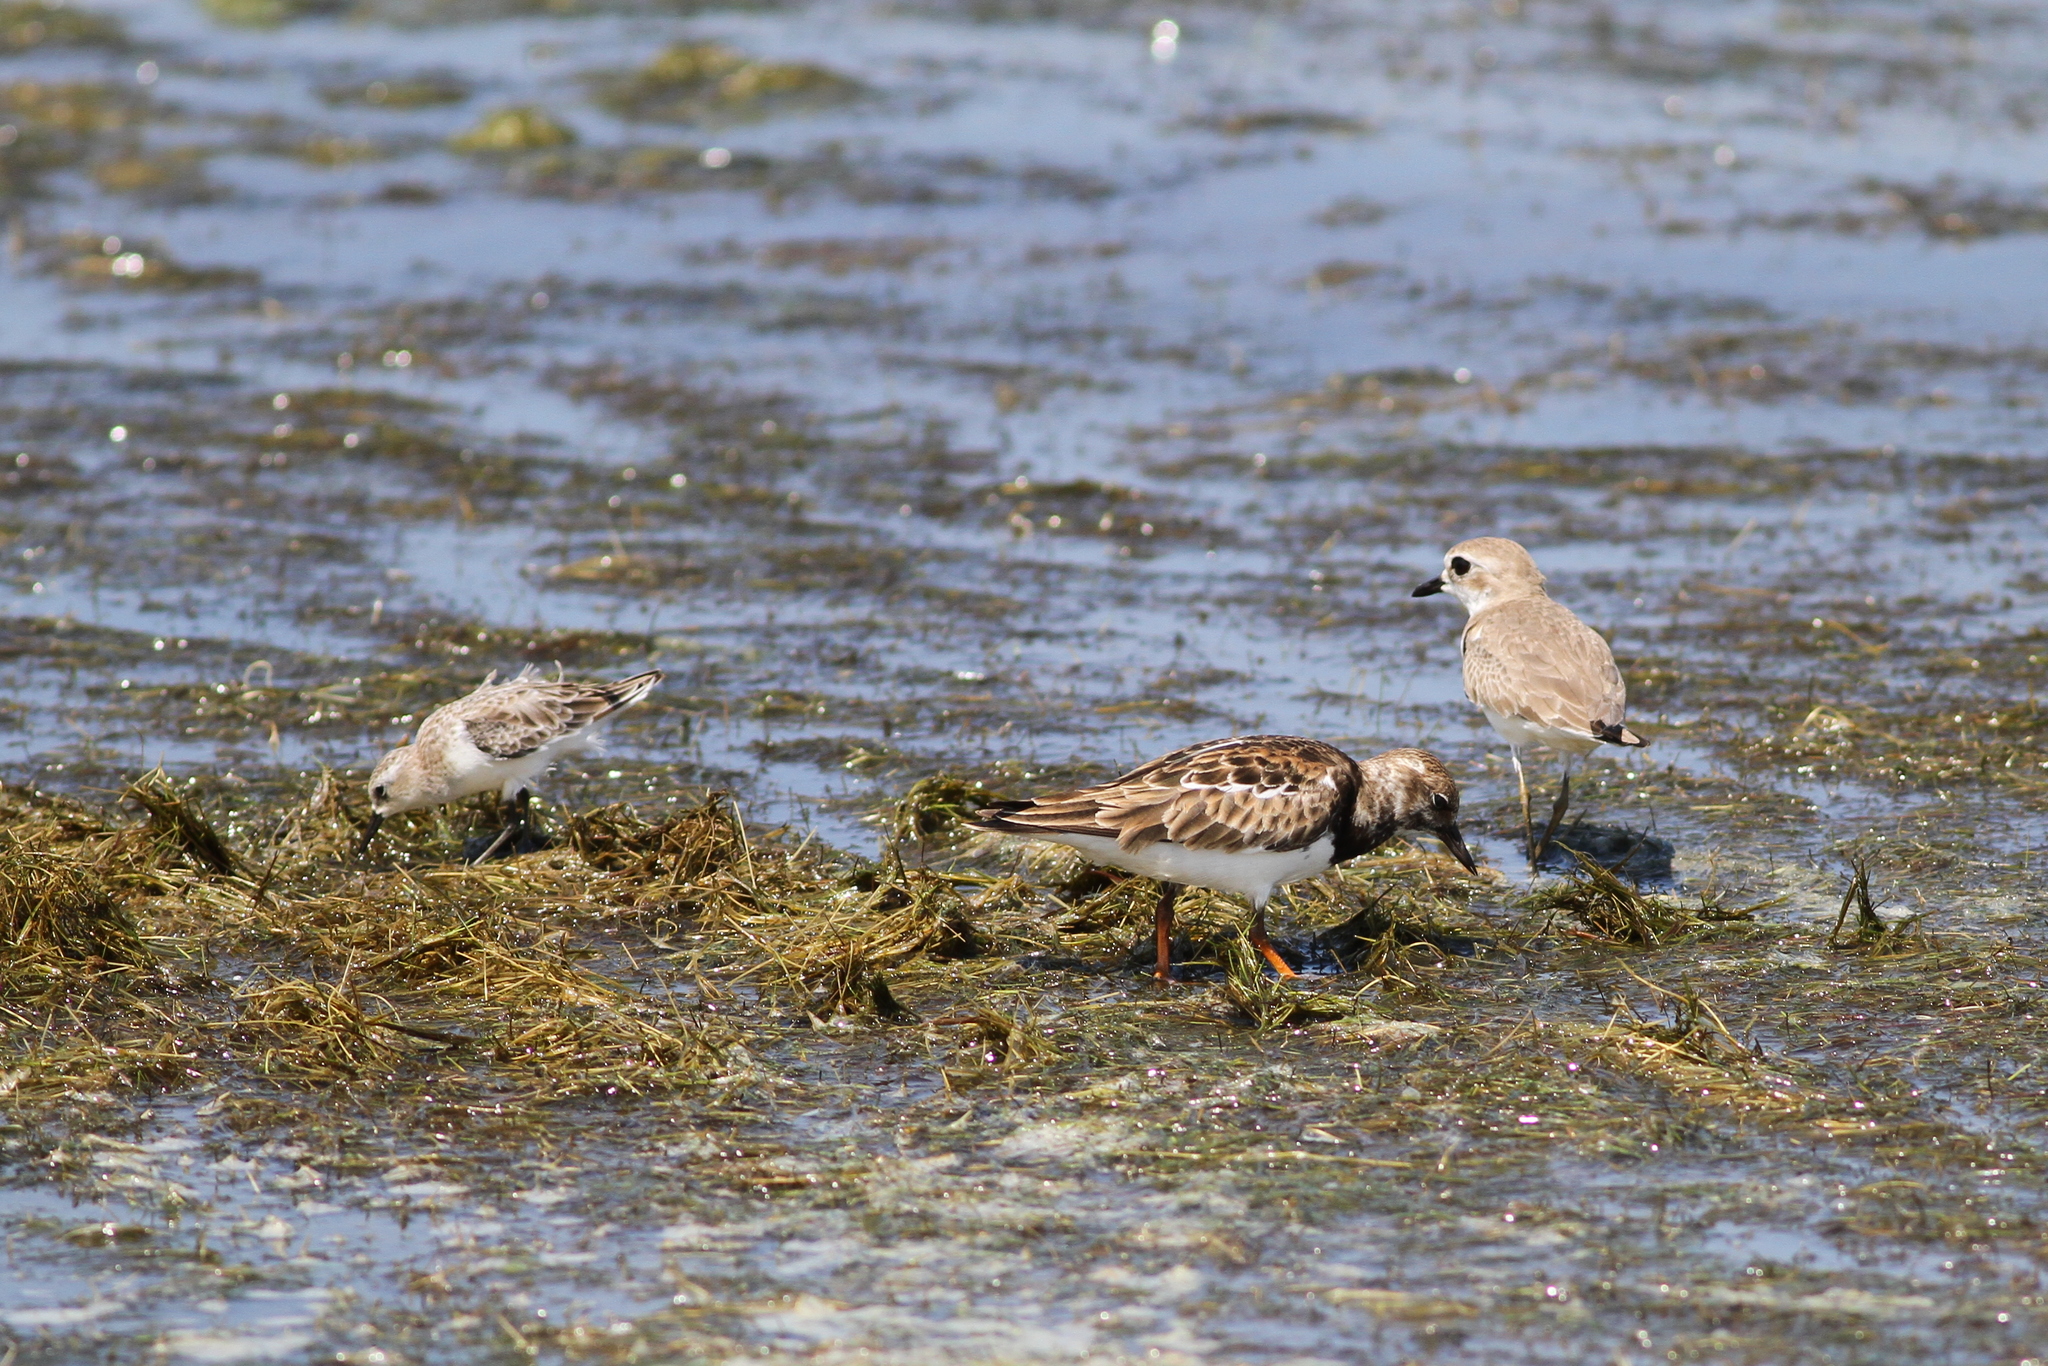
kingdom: Animalia
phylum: Chordata
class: Aves
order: Charadriiformes
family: Charadriidae
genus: Anarhynchus
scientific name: Anarhynchus
